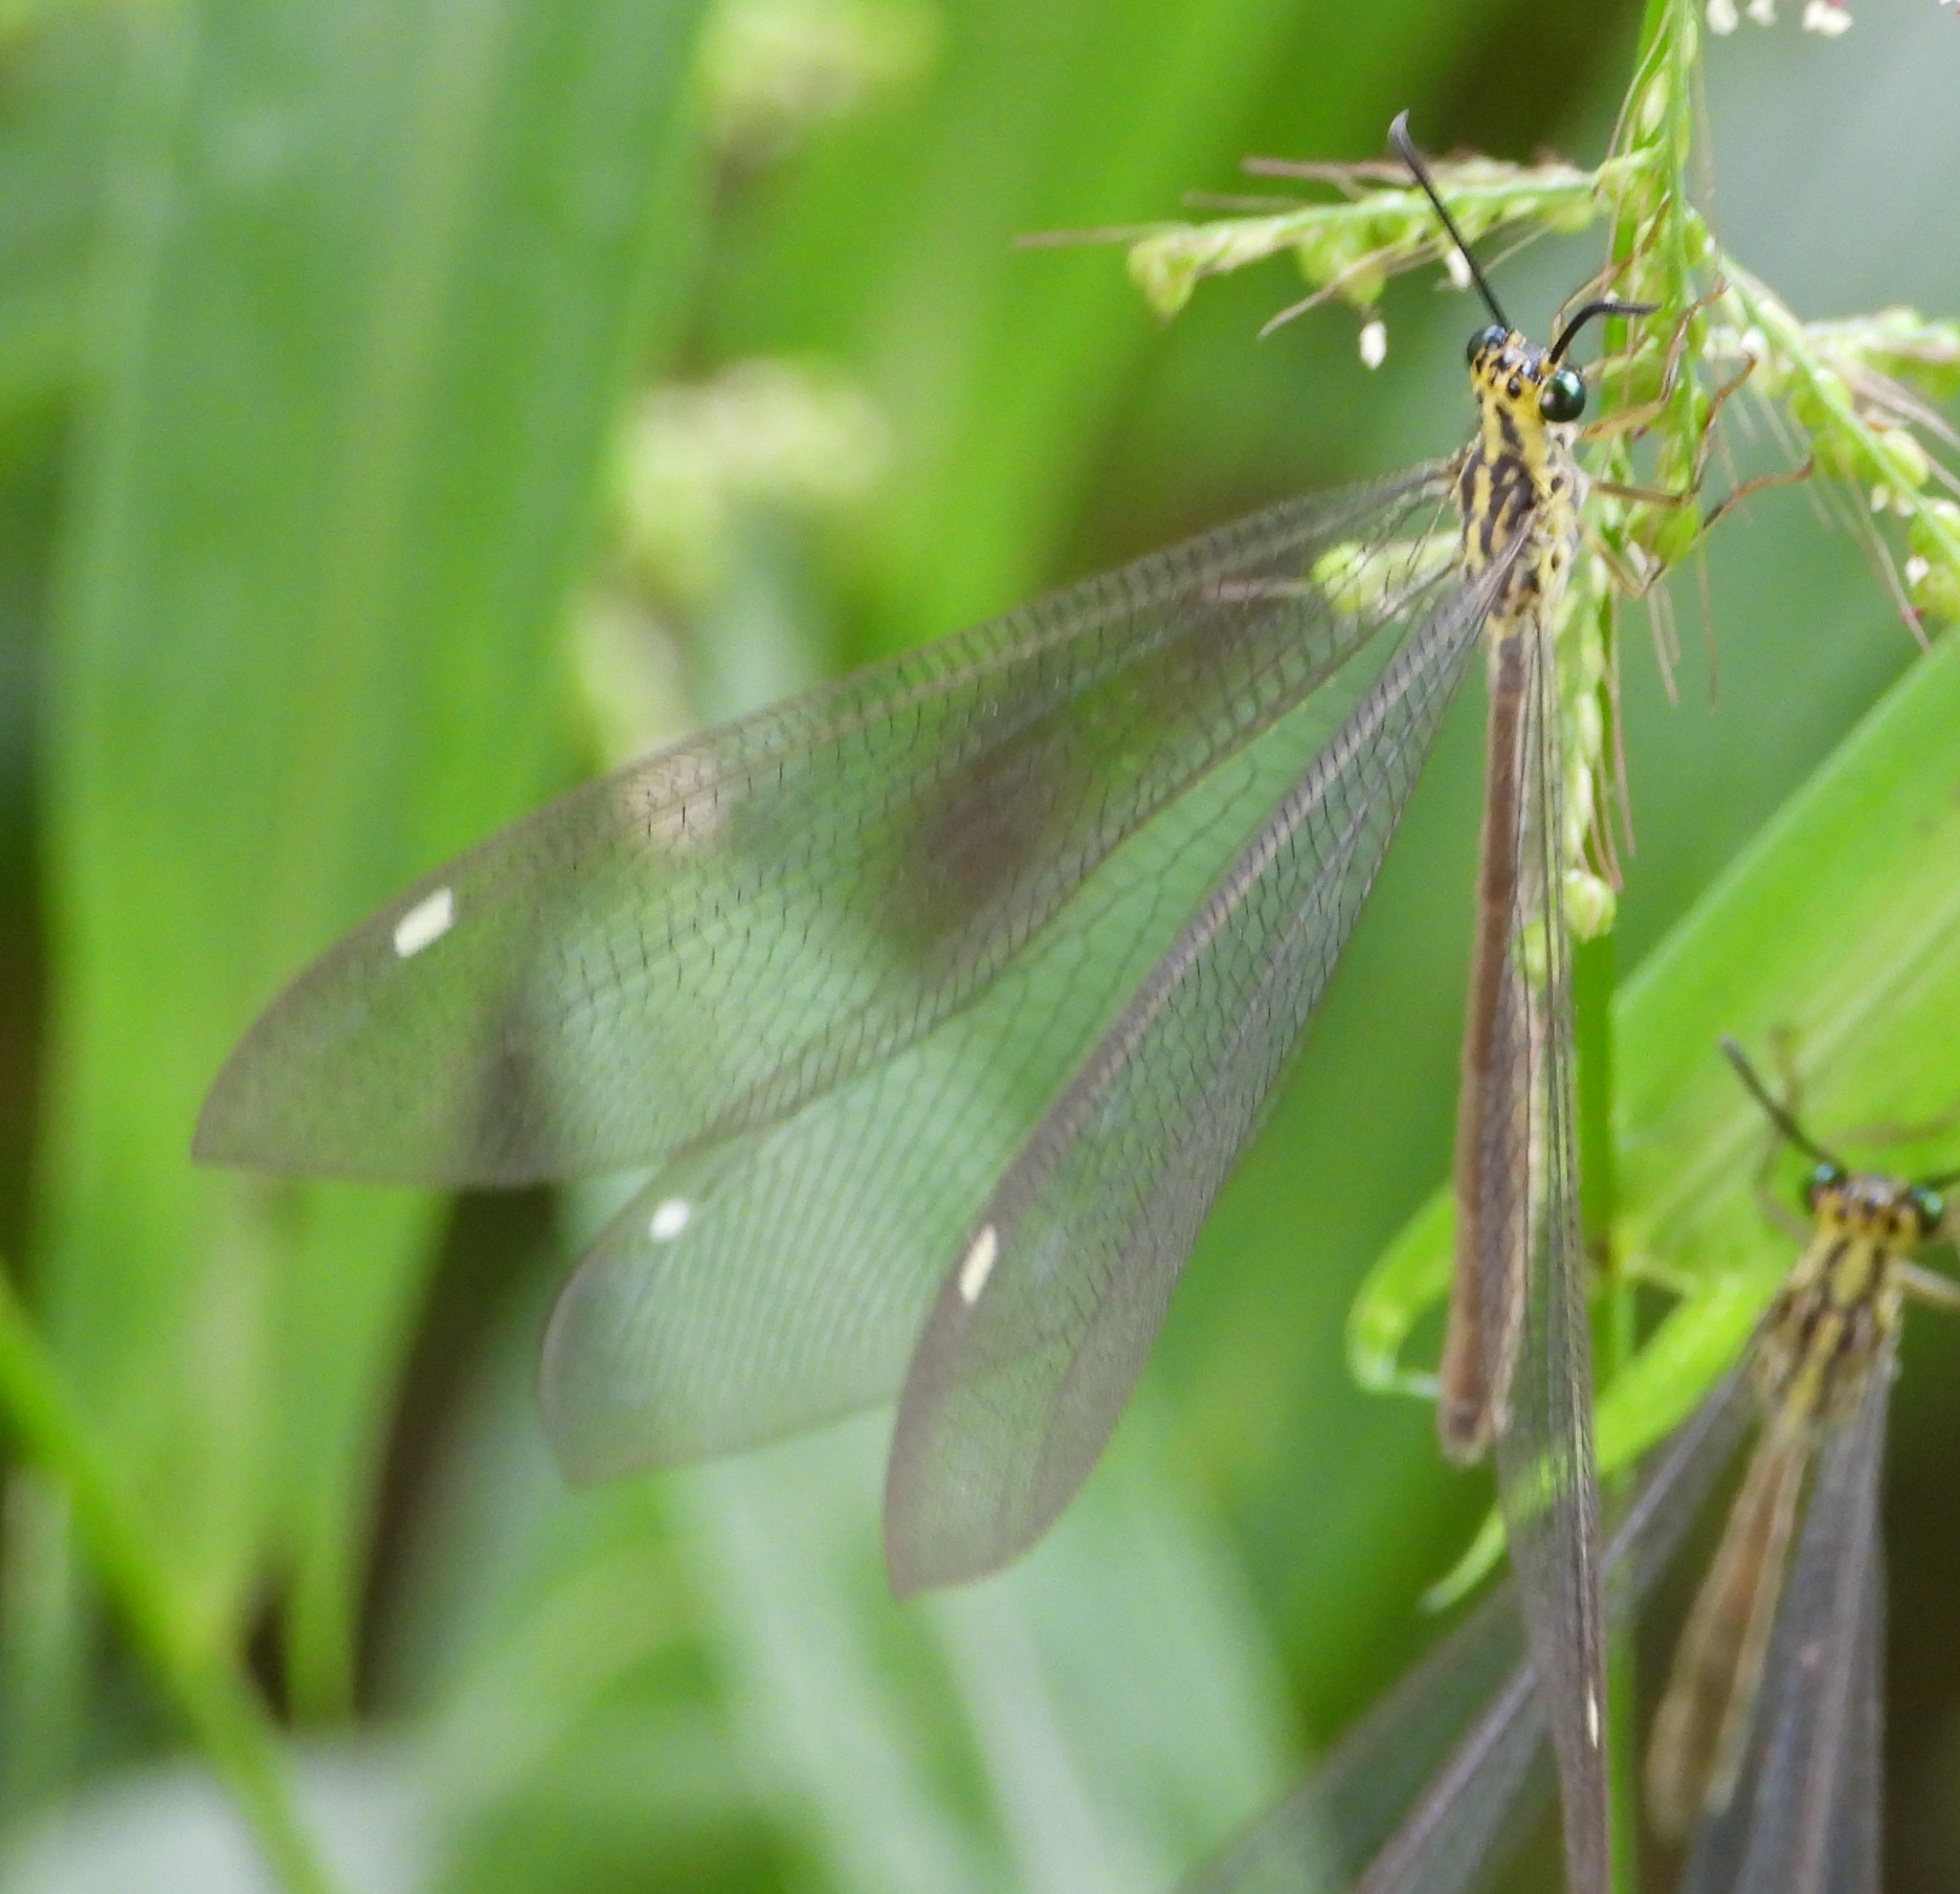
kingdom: Animalia
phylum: Arthropoda
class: Insecta
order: Neuroptera
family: Myrmeleontidae
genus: Hagenomyia
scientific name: Hagenomyia tristis
